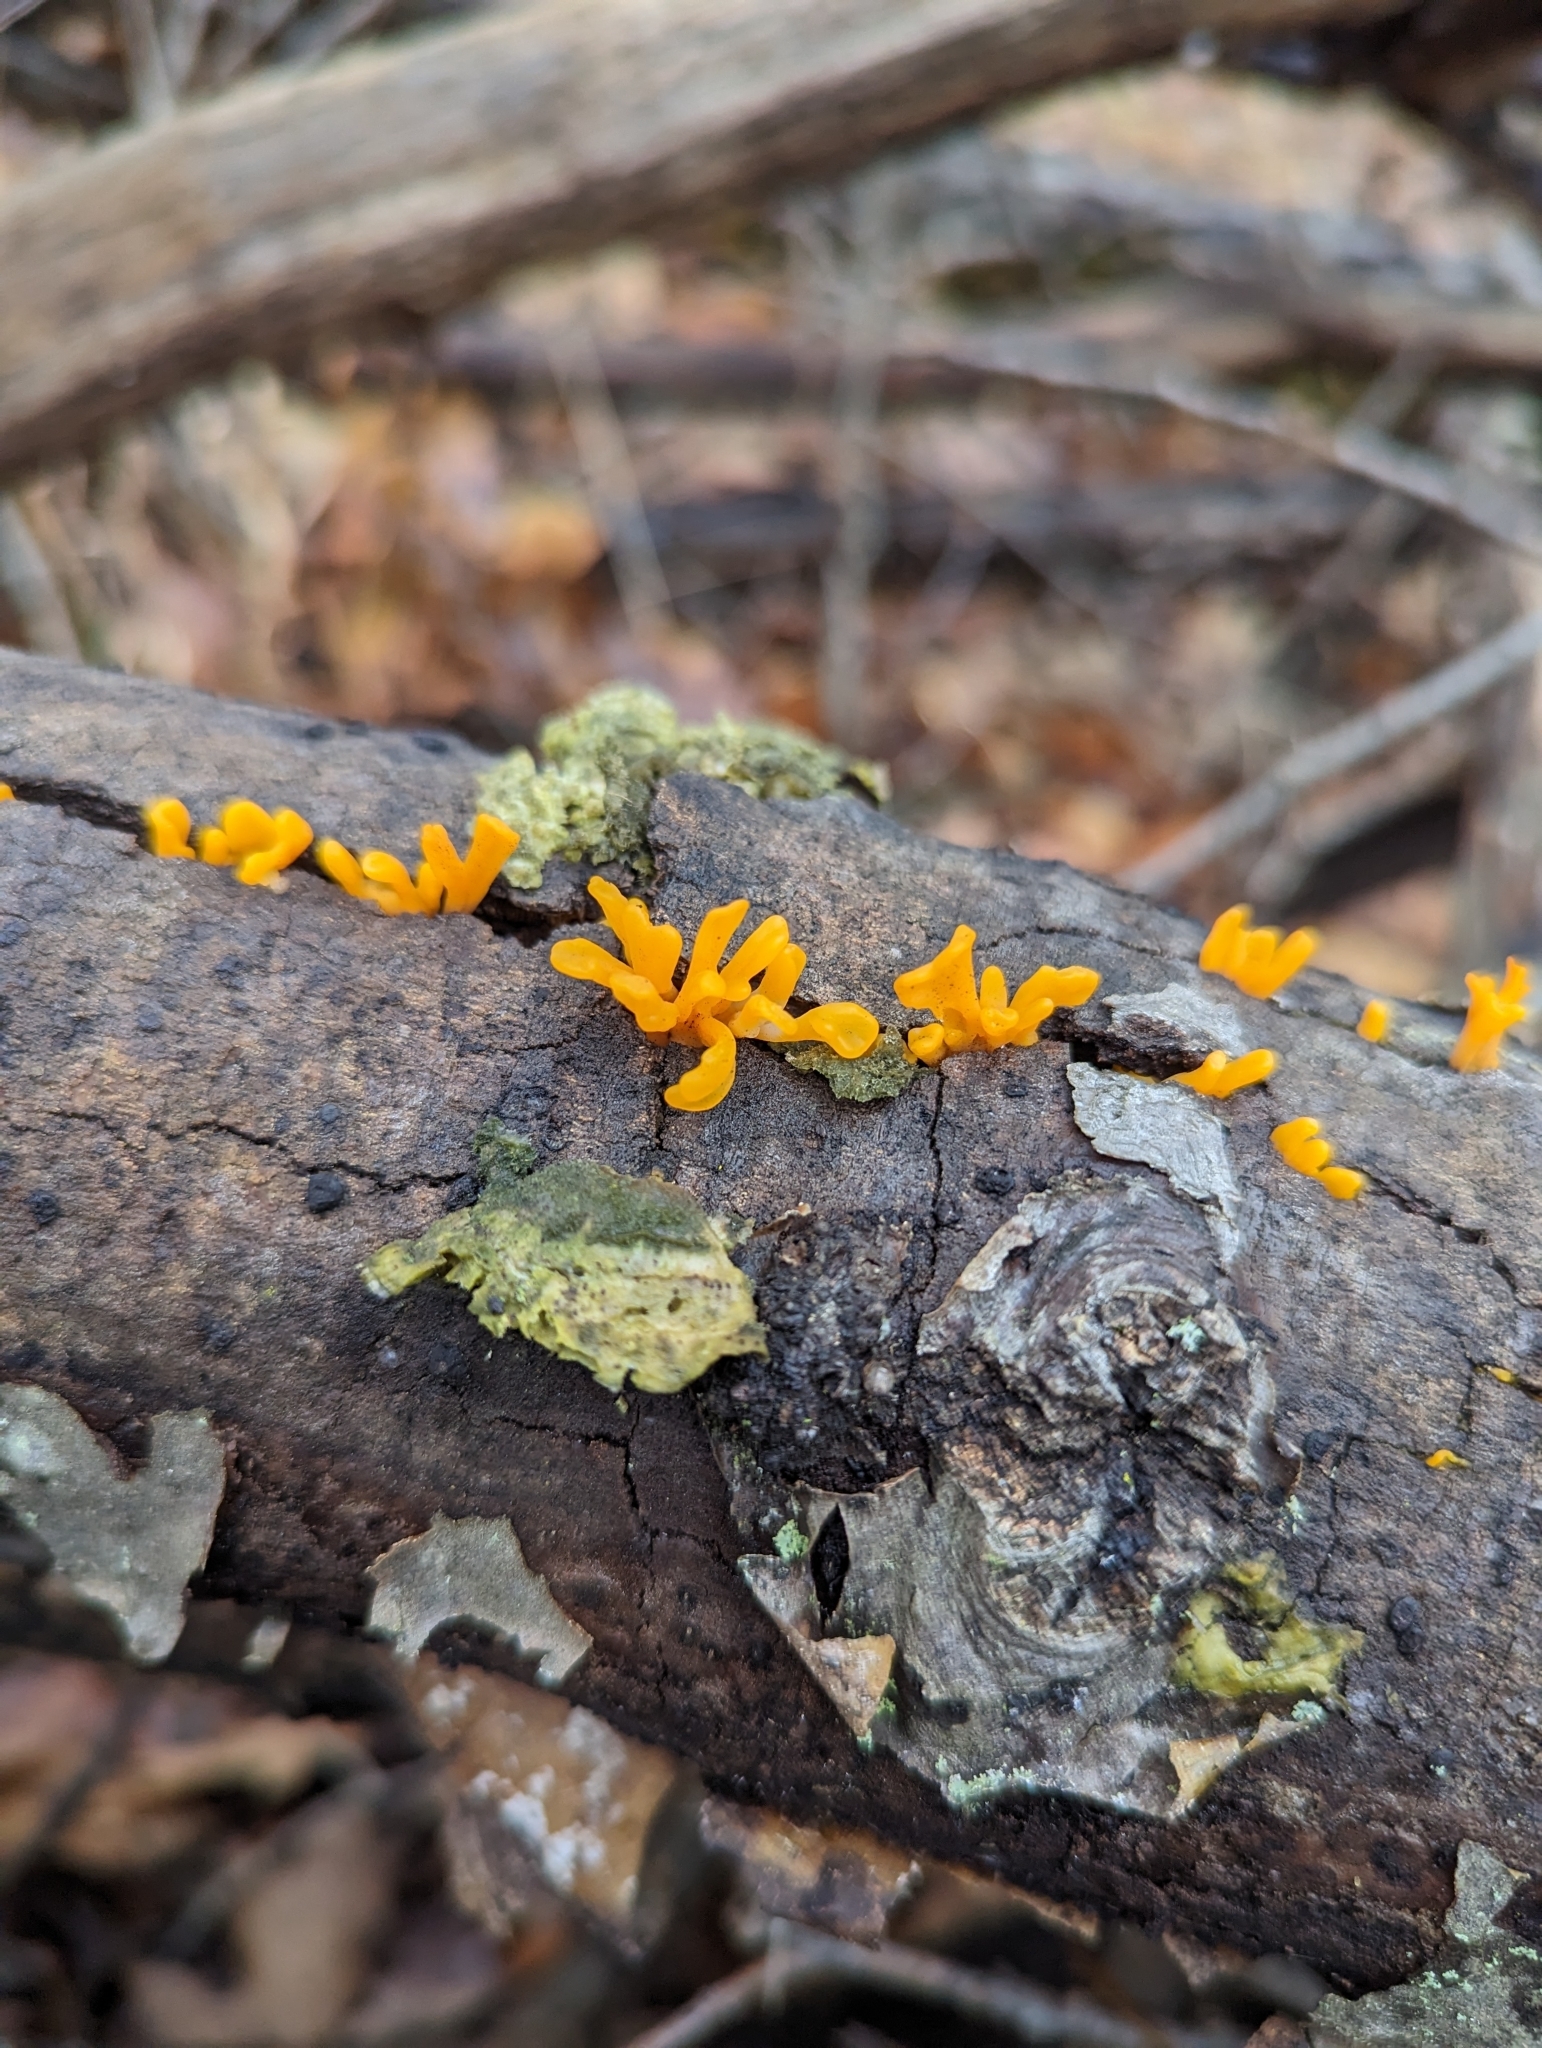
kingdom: Fungi
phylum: Basidiomycota
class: Dacrymycetes
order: Dacrymycetales
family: Dacrymycetaceae
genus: Dacrymyces
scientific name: Dacrymyces spathularius
